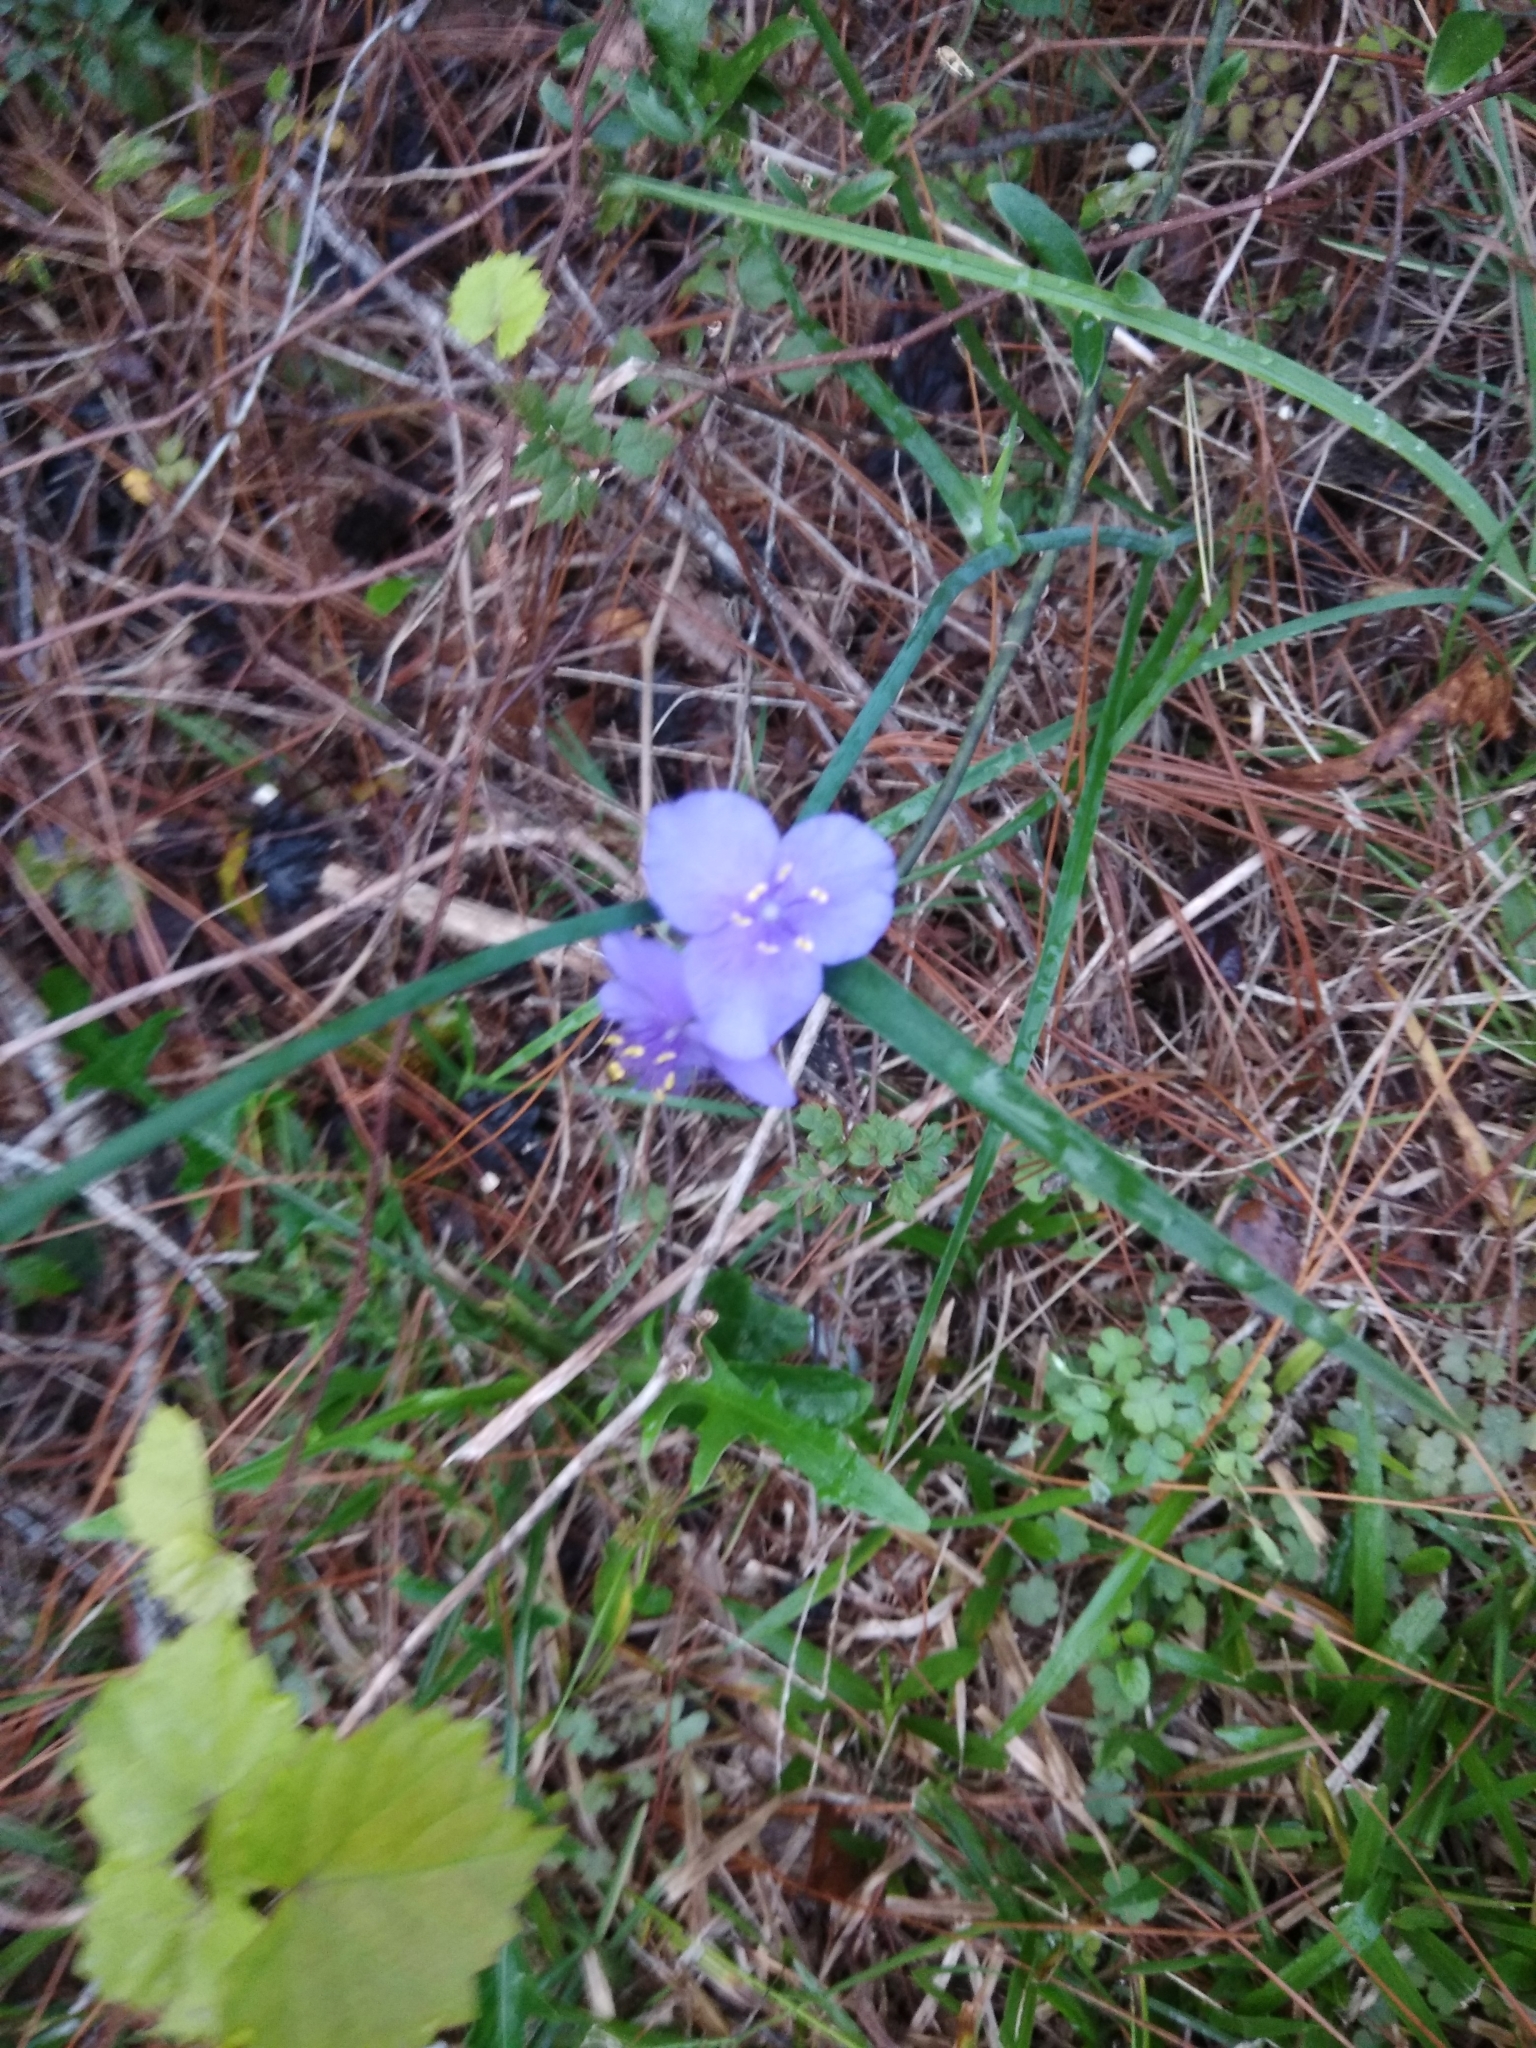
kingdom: Plantae
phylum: Tracheophyta
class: Liliopsida
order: Commelinales
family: Commelinaceae
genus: Tradescantia
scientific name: Tradescantia ohiensis
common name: Ohio spiderwort
